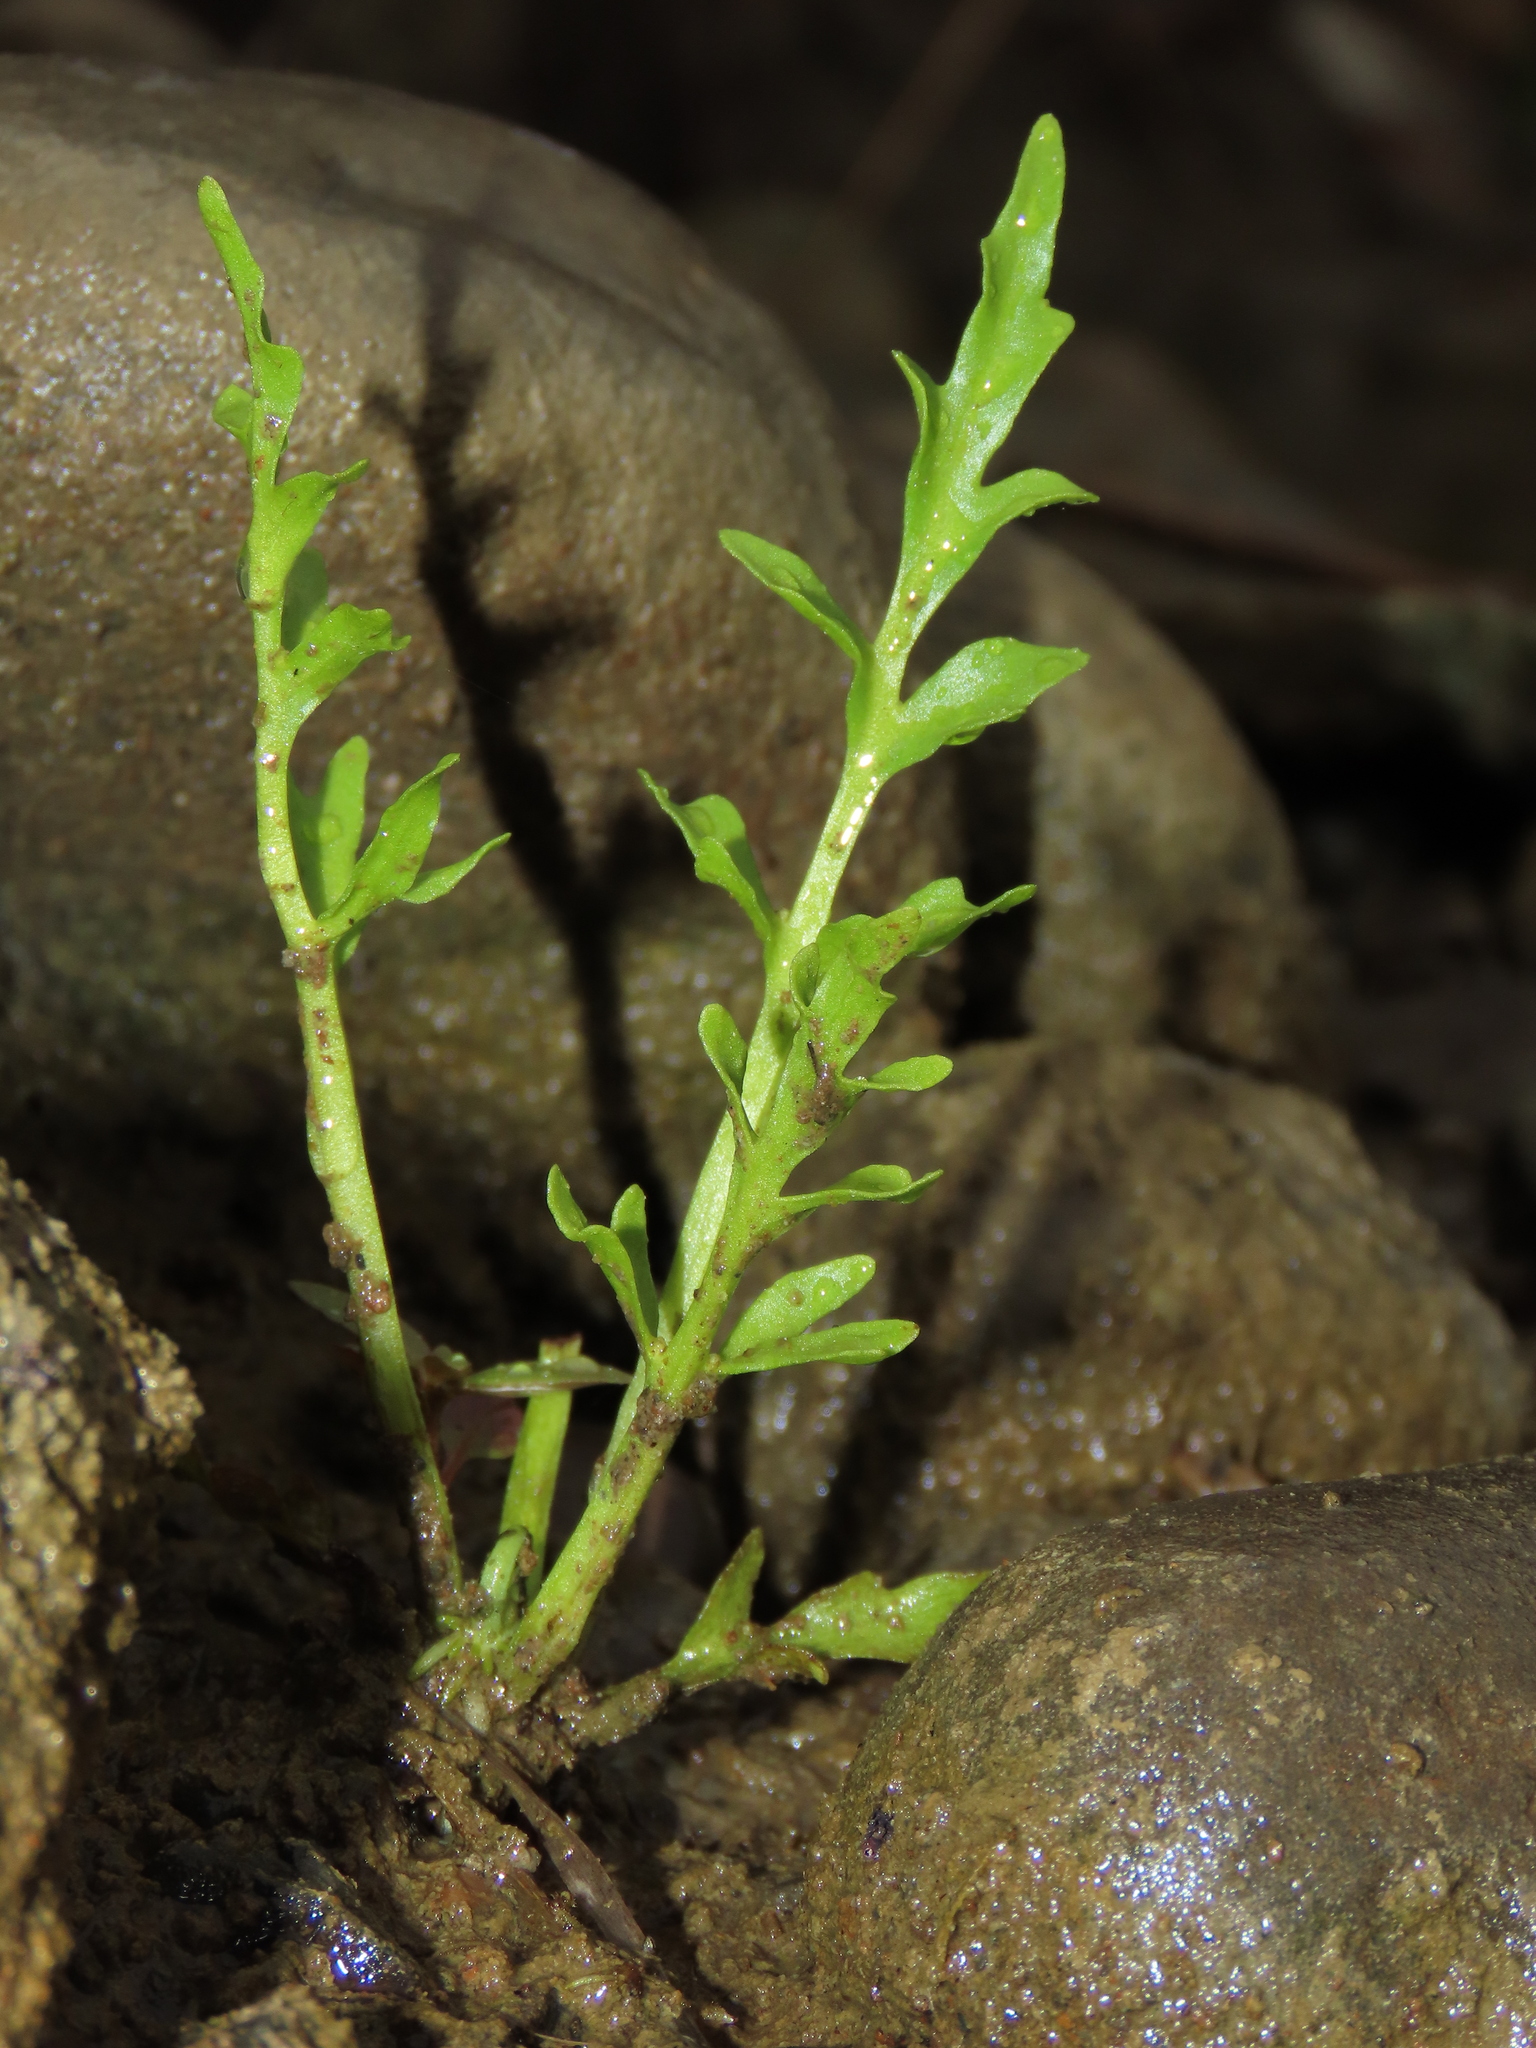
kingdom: Plantae
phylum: Tracheophyta
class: Polypodiopsida
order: Polypodiales
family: Pteridaceae
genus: Ceratopteris
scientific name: Ceratopteris thalictroides
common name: Water fern
